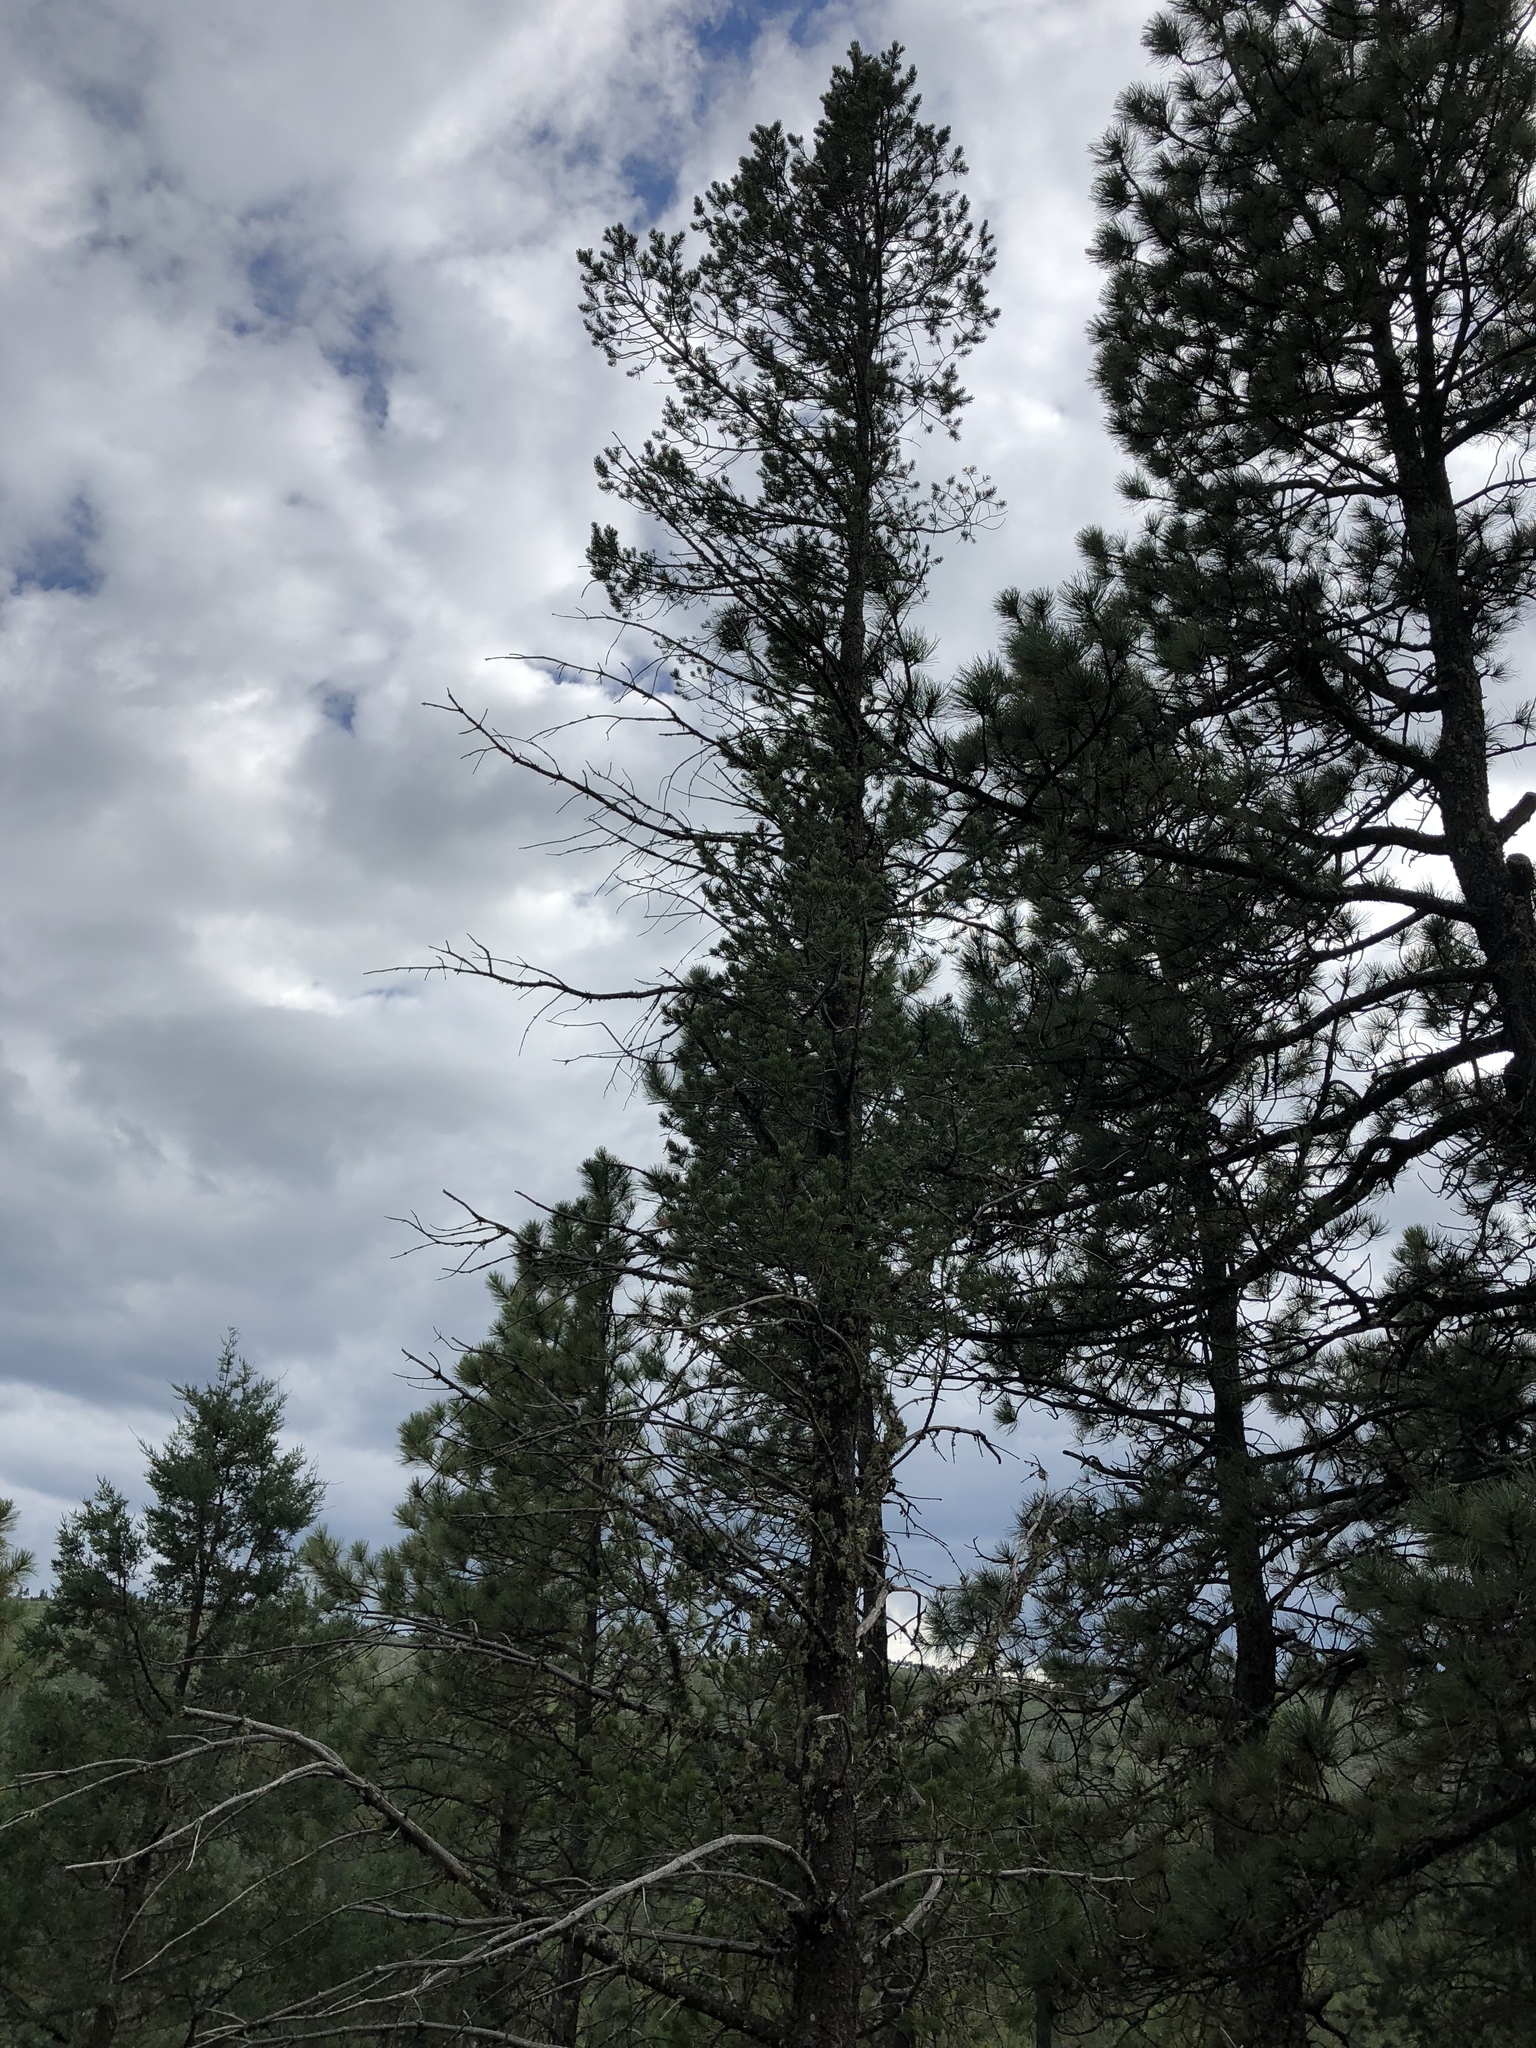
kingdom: Plantae
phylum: Tracheophyta
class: Pinopsida
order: Pinales
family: Pinaceae
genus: Pinus
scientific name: Pinus edulis
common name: Colorado pinyon
